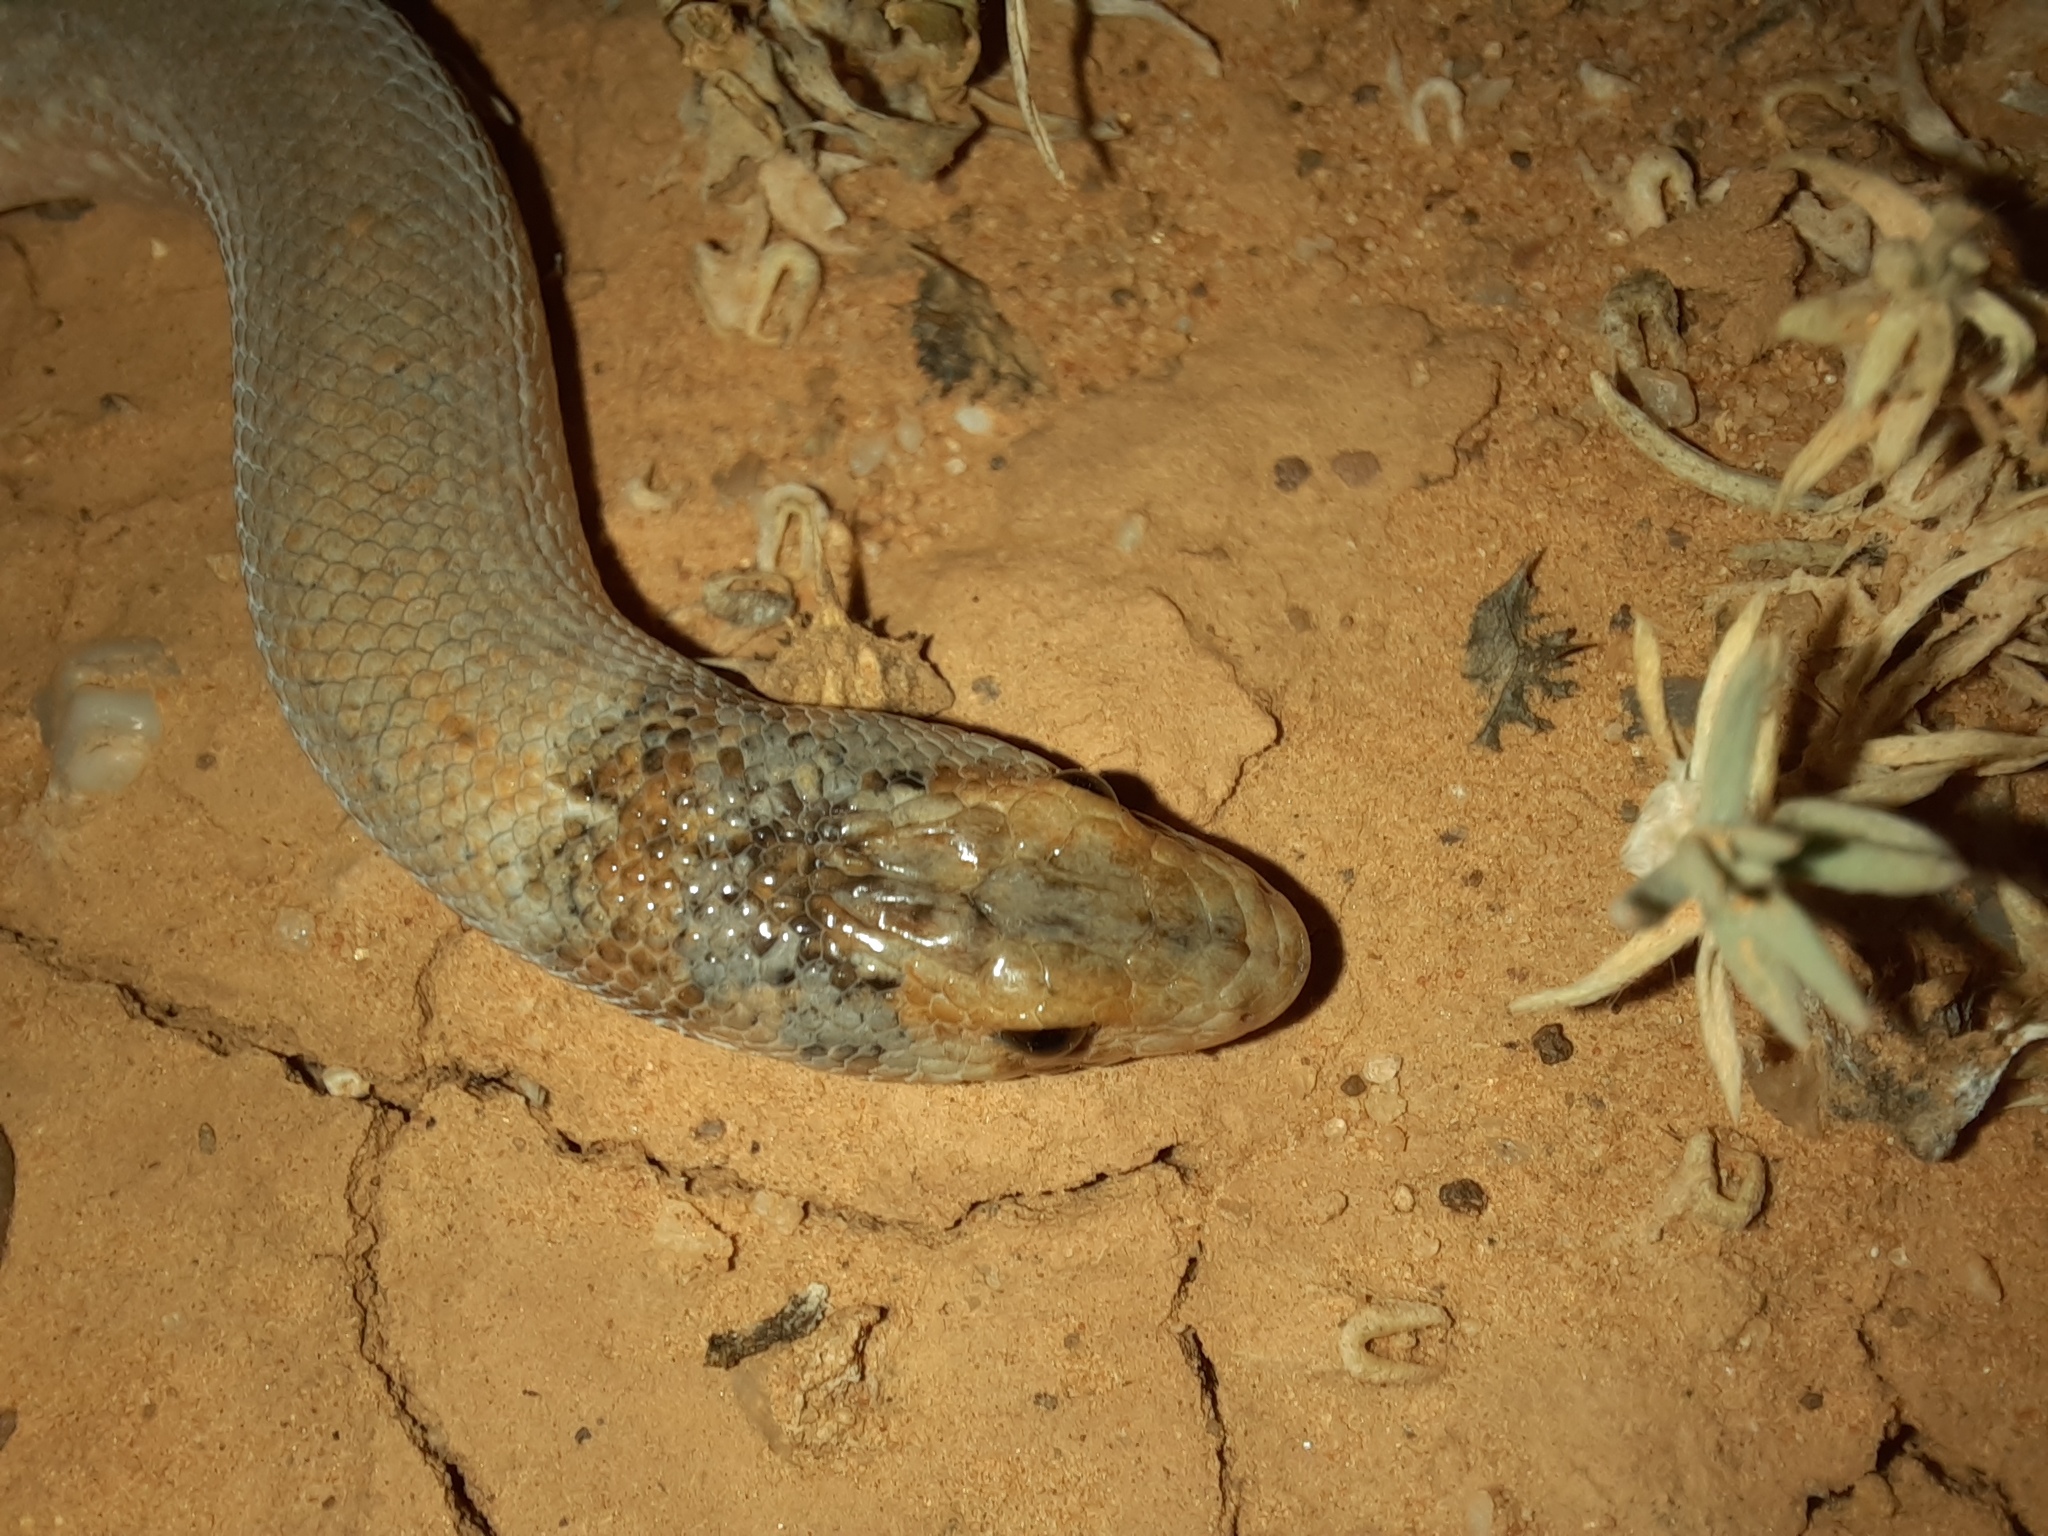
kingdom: Animalia
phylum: Chordata
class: Squamata
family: Pygopodidae
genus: Pygopus
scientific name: Pygopus schraderi
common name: Eastern scaly-foot
